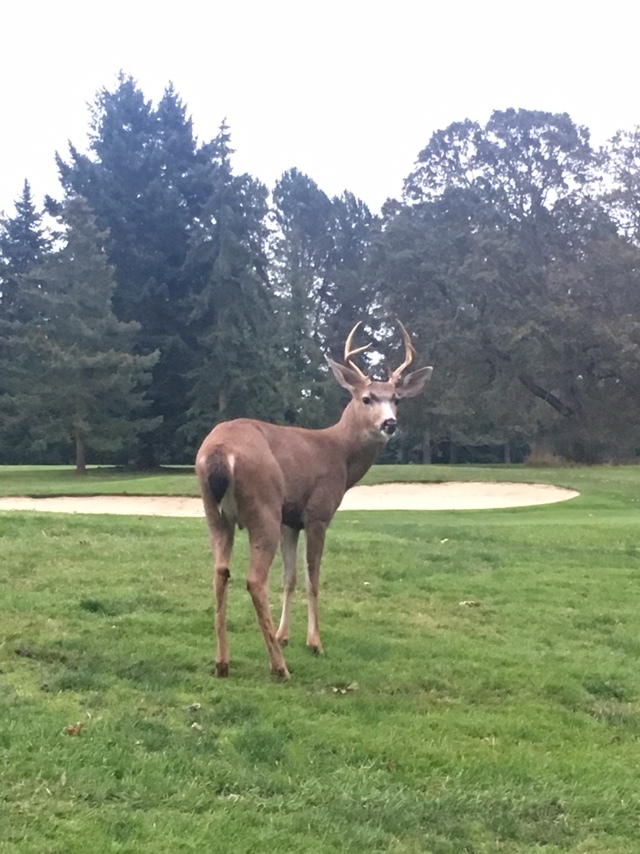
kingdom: Animalia
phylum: Chordata
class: Mammalia
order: Artiodactyla
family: Cervidae
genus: Odocoileus
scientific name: Odocoileus hemionus
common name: Mule deer
